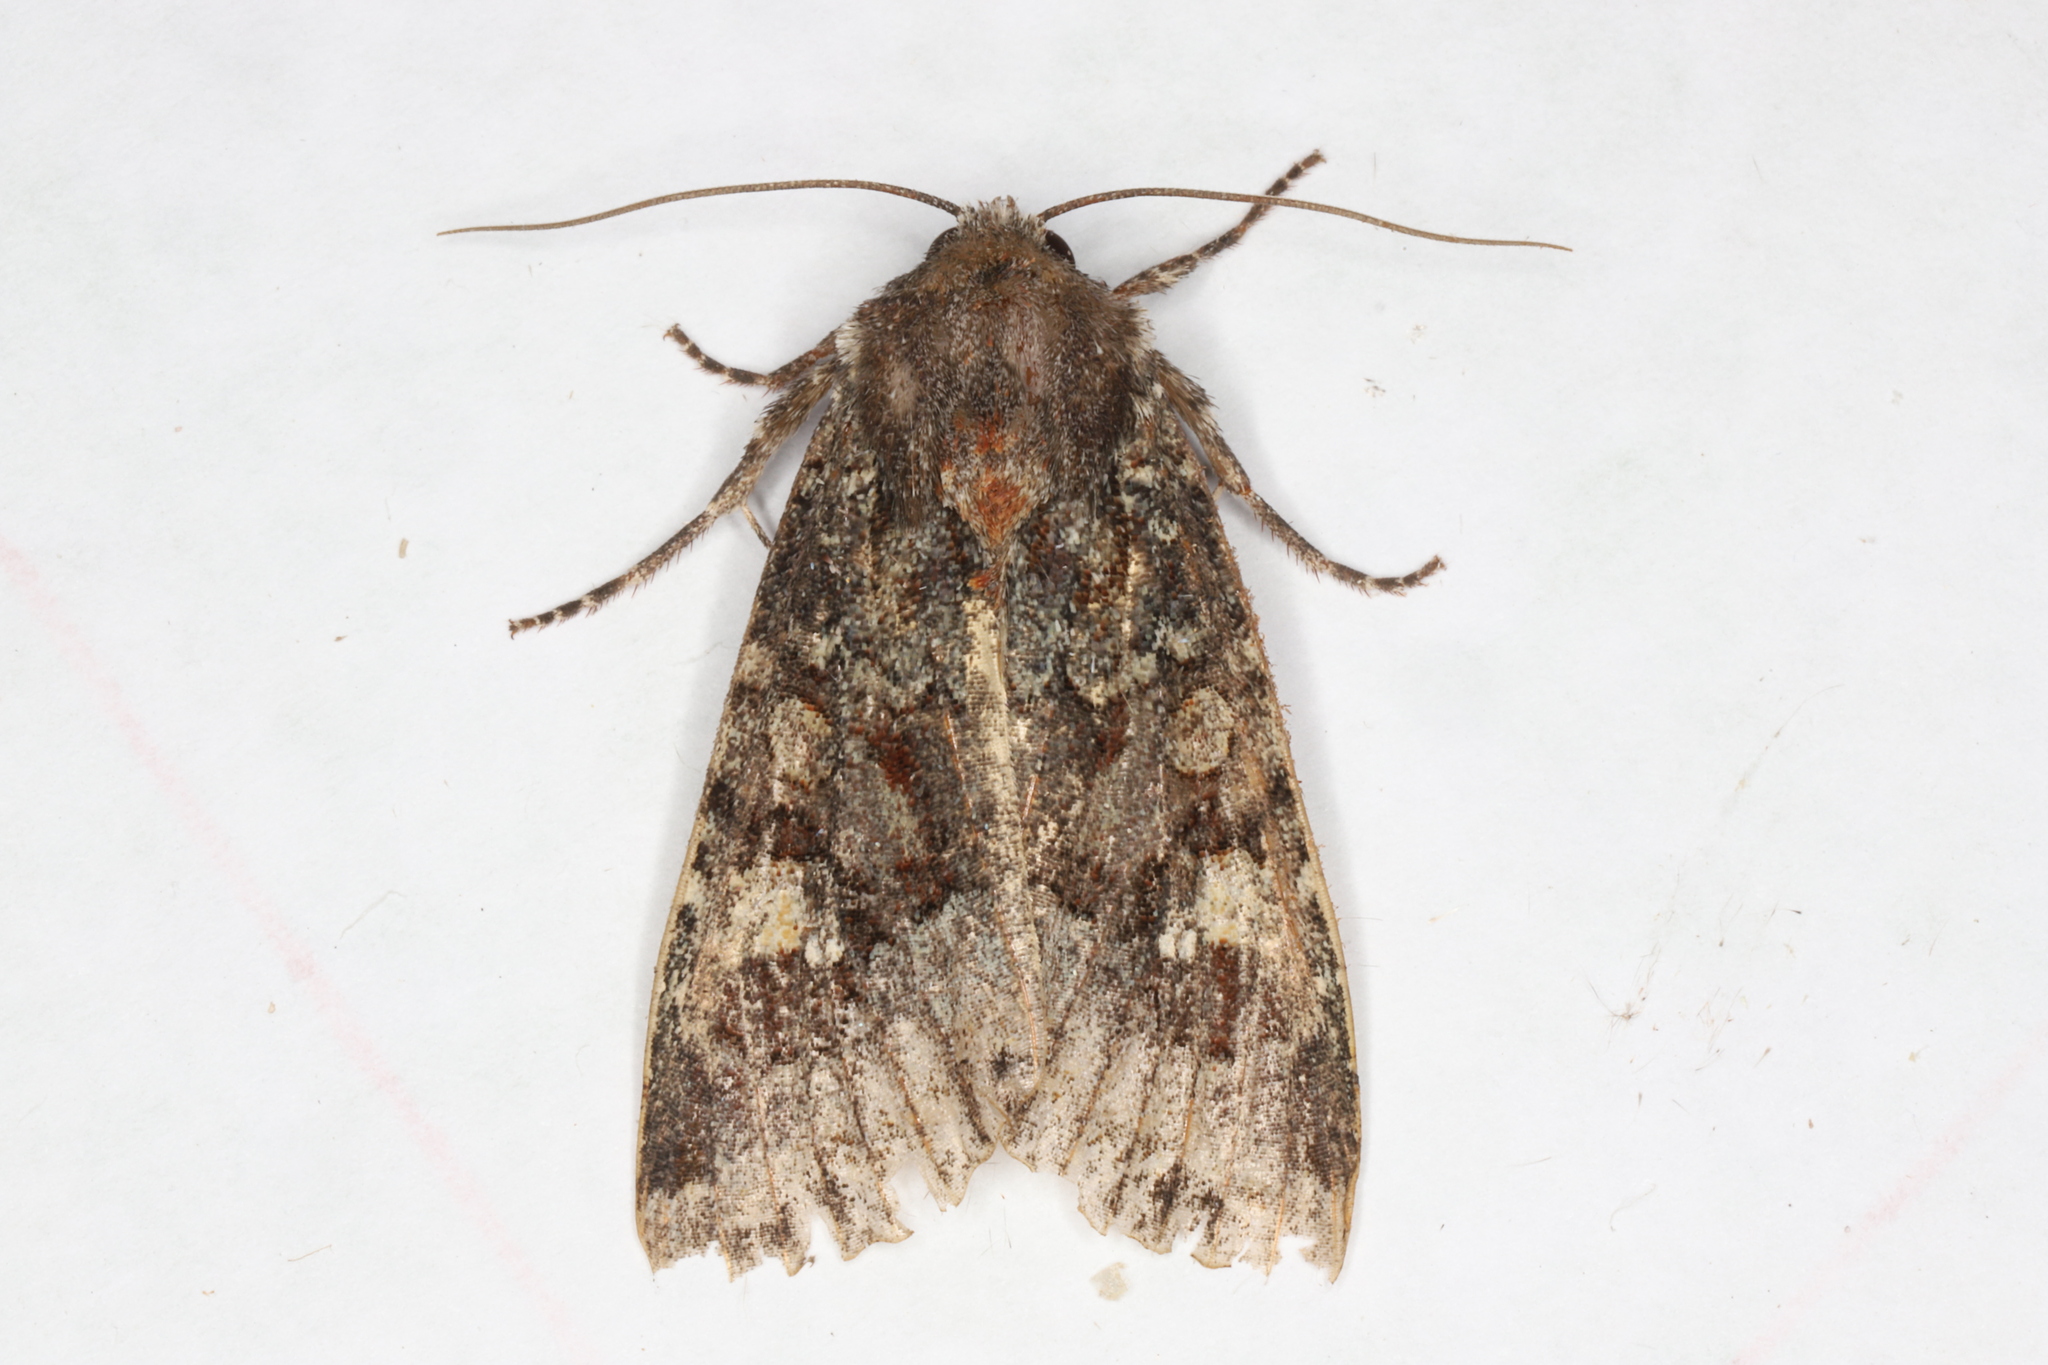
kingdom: Animalia
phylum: Arthropoda
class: Insecta
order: Lepidoptera
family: Noctuidae
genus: Apamea
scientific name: Apamea amputatrix
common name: Yellow-headed cutworm moth
